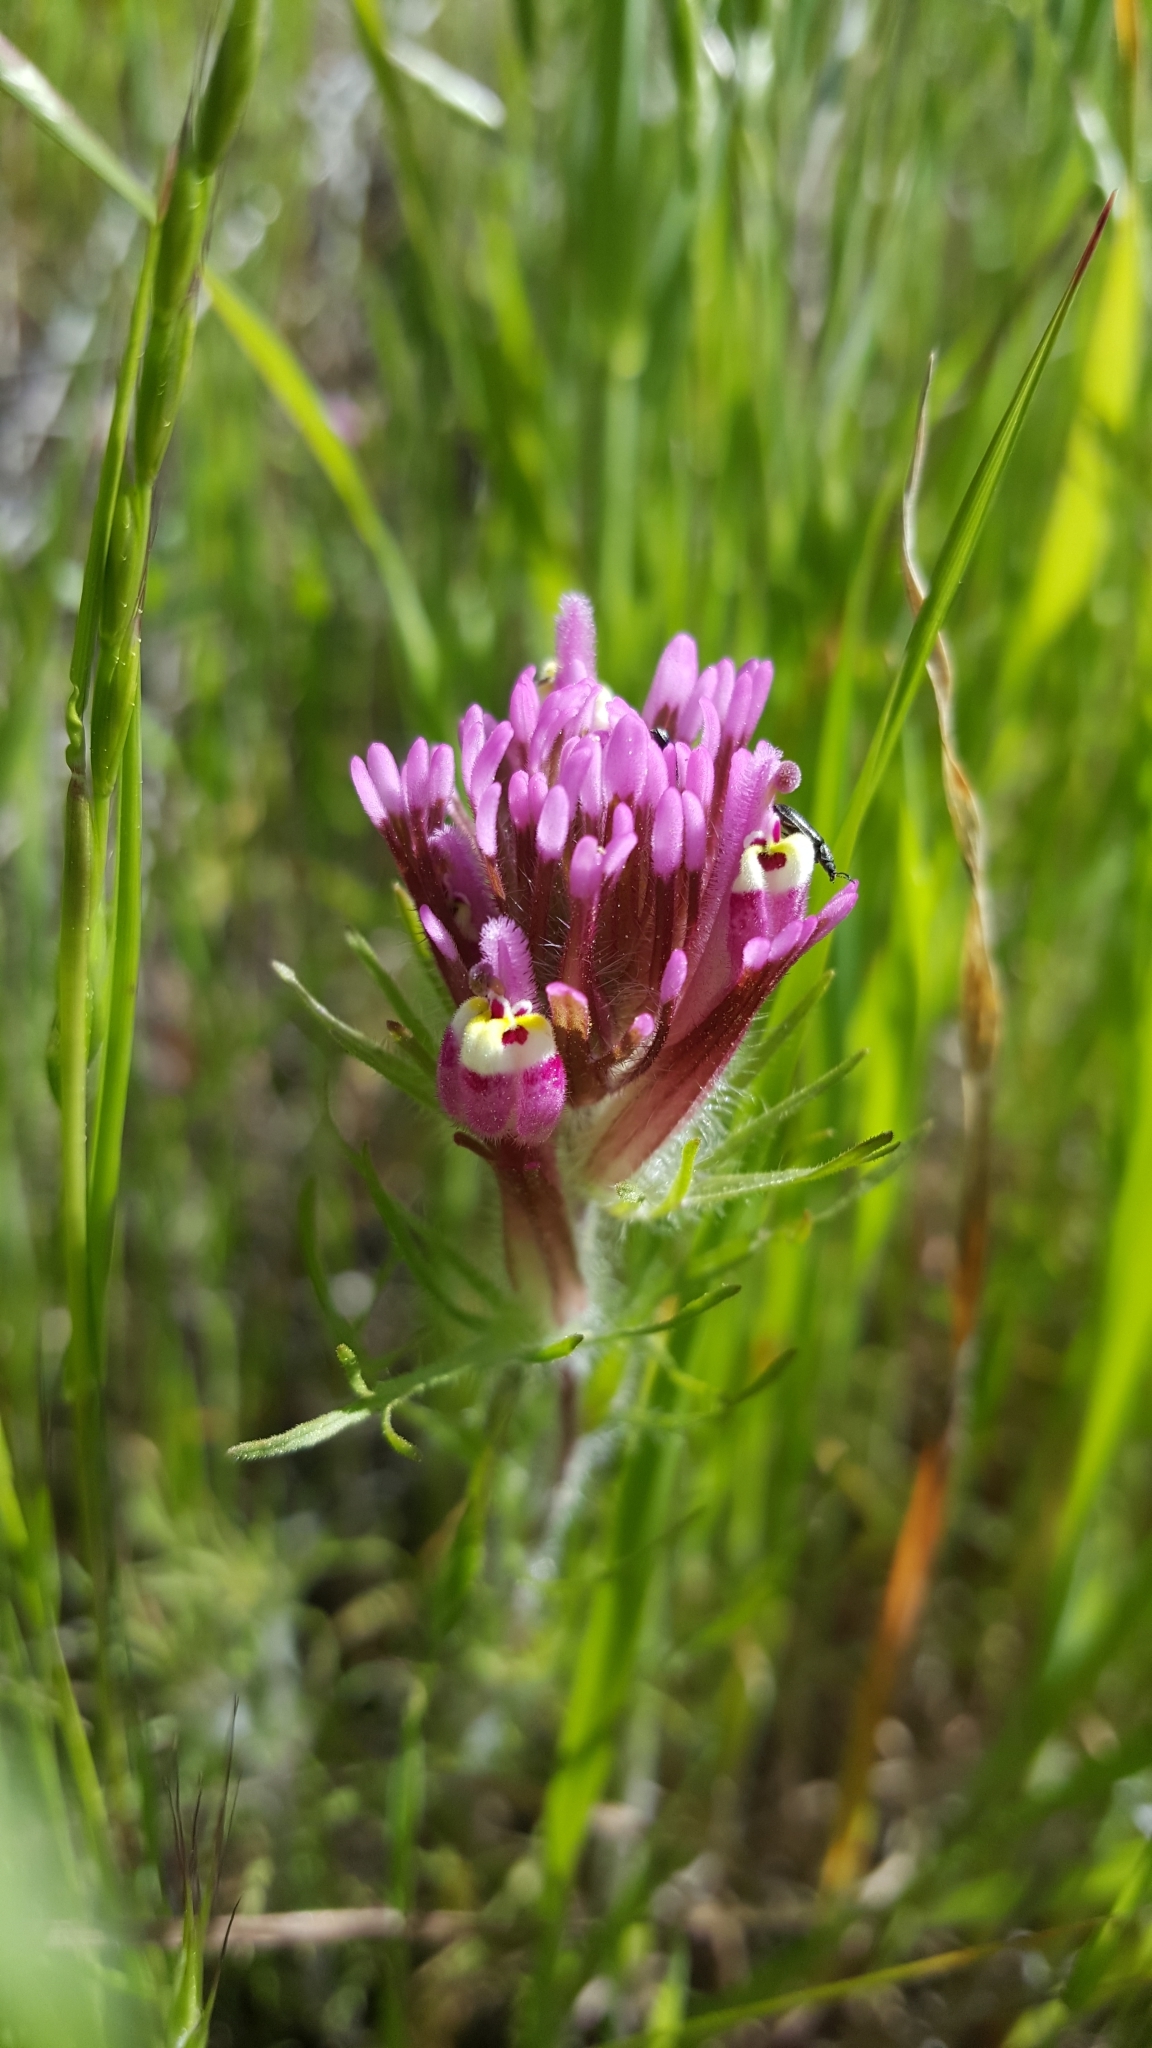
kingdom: Plantae
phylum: Tracheophyta
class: Magnoliopsida
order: Lamiales
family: Orobanchaceae
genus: Castilleja
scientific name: Castilleja exserta
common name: Purple owl-clover
